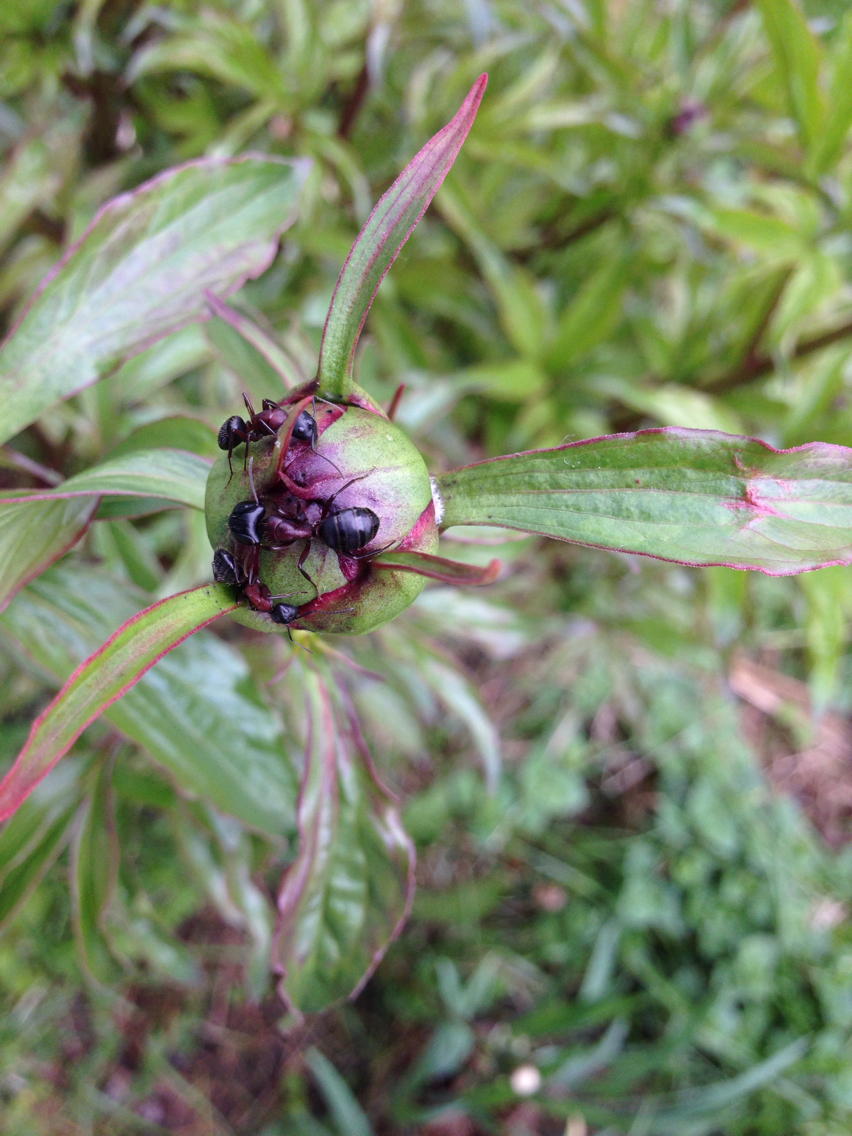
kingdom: Animalia
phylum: Arthropoda
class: Insecta
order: Hymenoptera
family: Formicidae
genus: Camponotus
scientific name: Camponotus novaeboracensis
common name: New york carpenter ant
